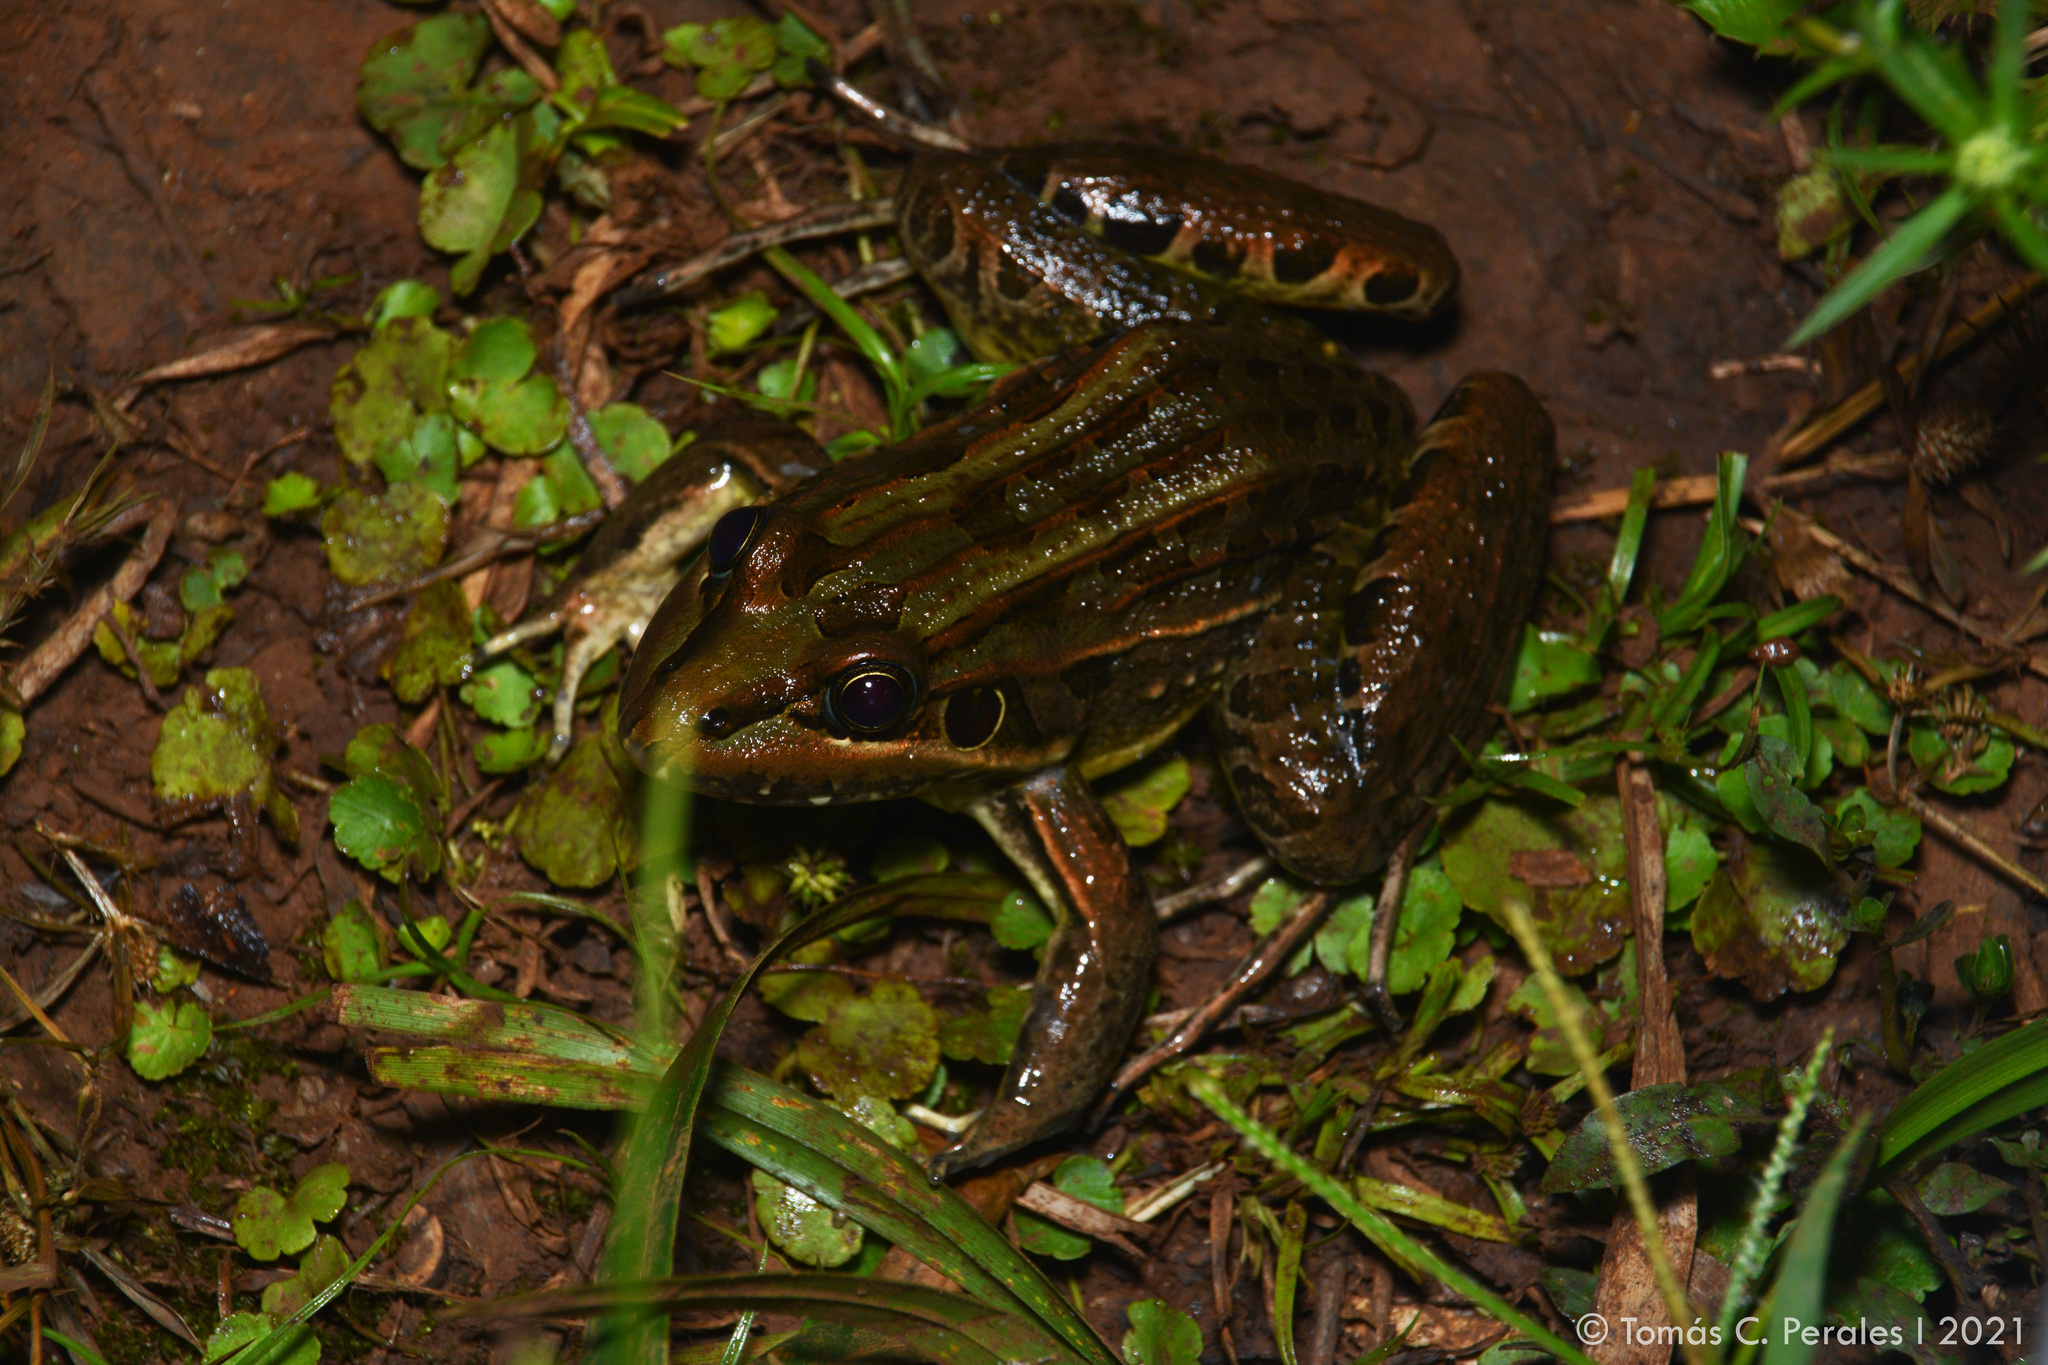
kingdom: Animalia
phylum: Chordata
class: Amphibia
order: Anura
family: Leptodactylidae
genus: Leptodactylus
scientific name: Leptodactylus luctator
